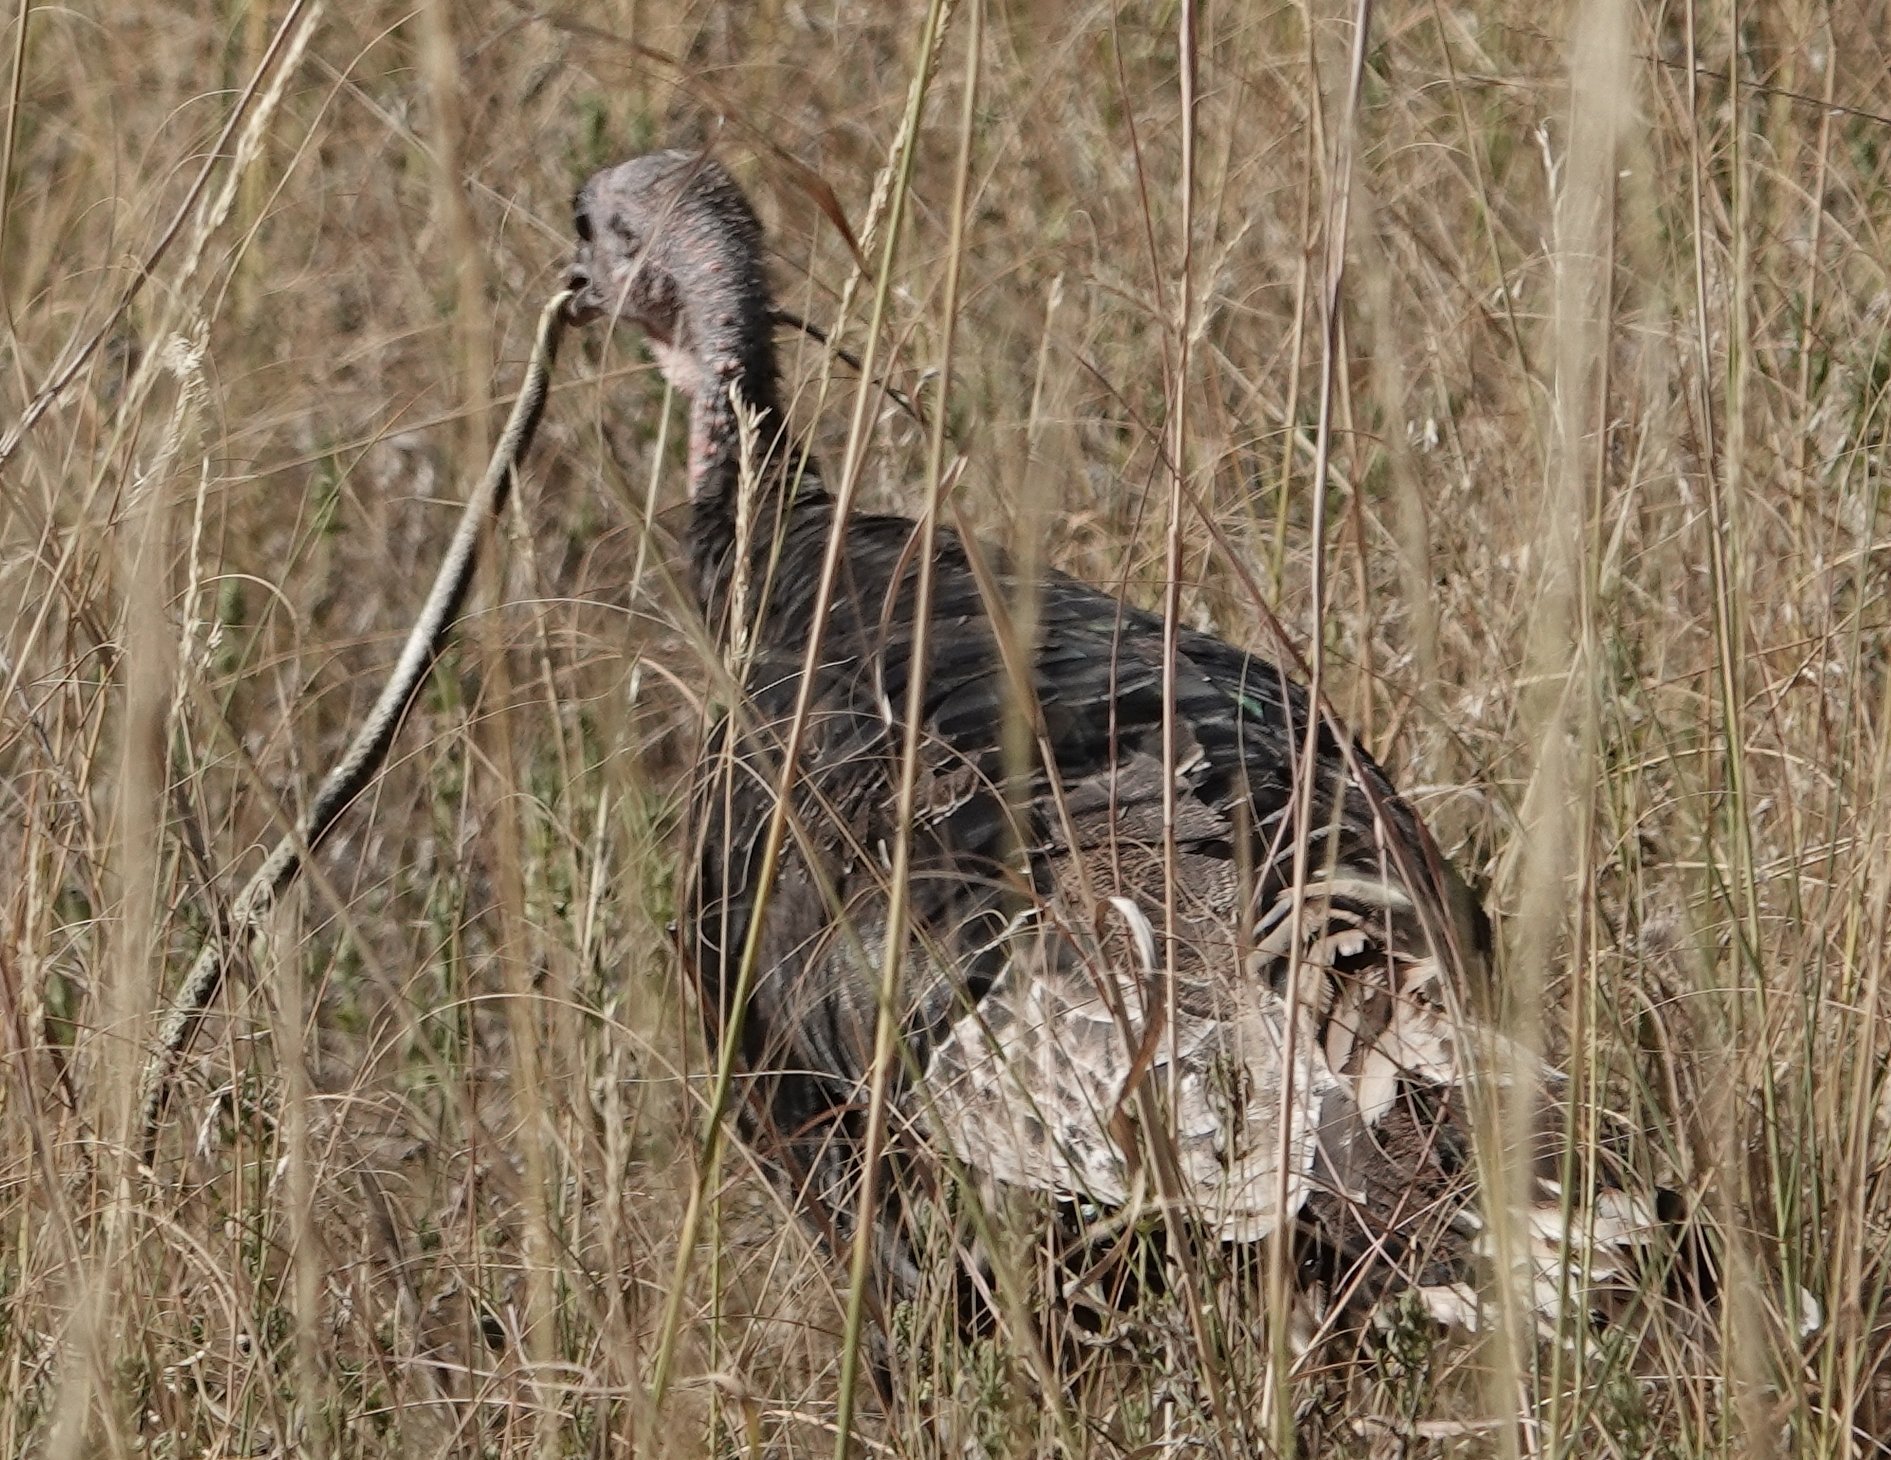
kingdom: Animalia
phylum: Chordata
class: Aves
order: Galliformes
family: Phasianidae
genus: Meleagris
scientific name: Meleagris gallopavo
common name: Wild turkey
